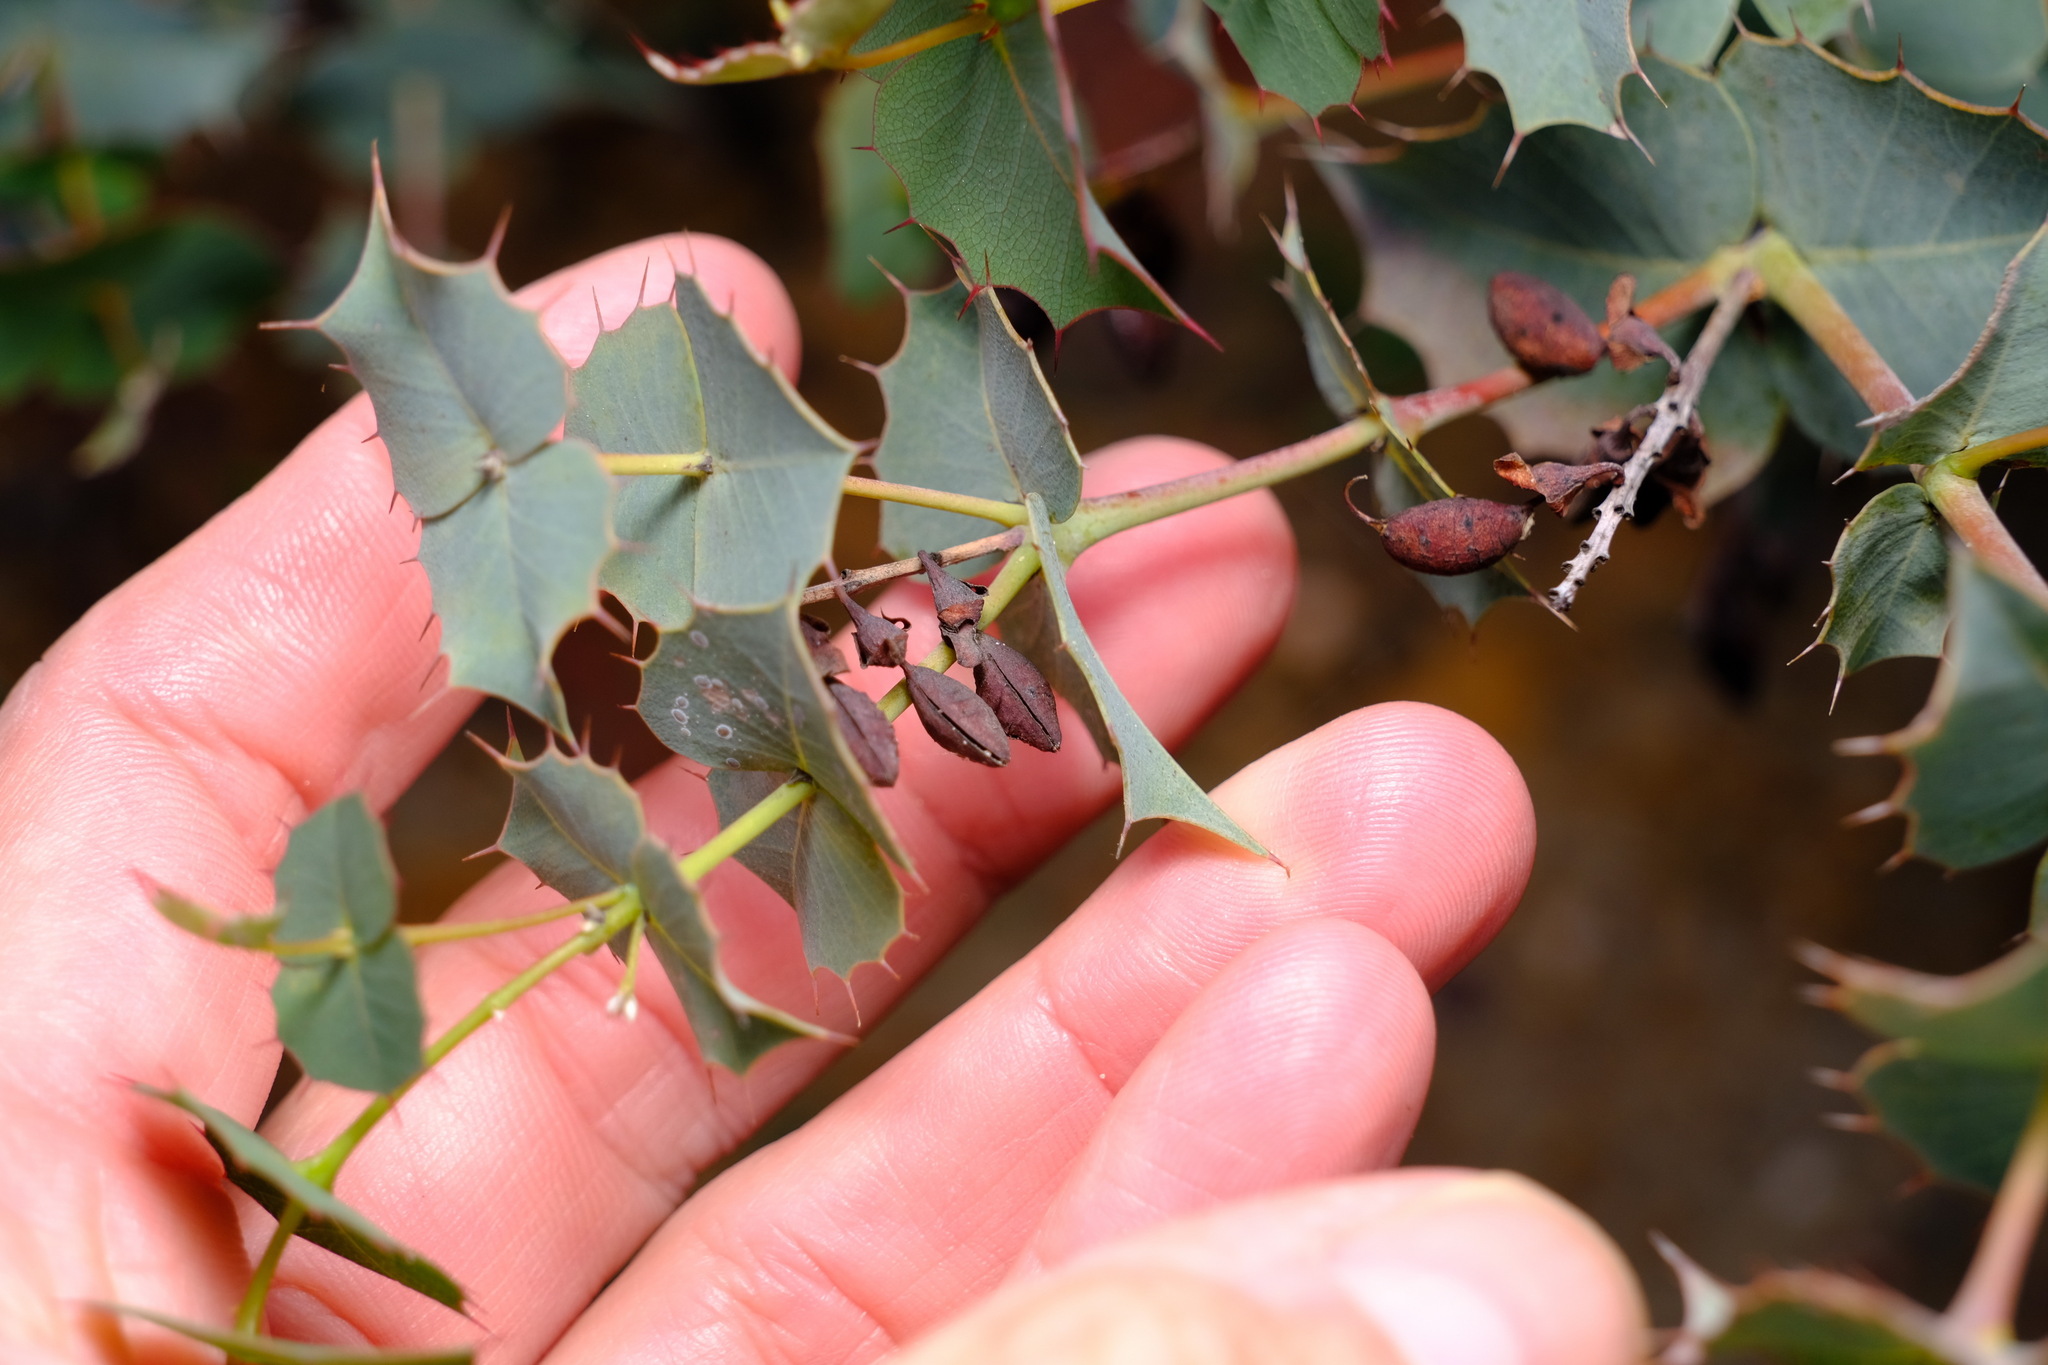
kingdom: Plantae
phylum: Tracheophyta
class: Magnoliopsida
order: Fabales
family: Fabaceae
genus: Gastrolobium
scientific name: Gastrolobium spinosum
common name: Prickly poison
